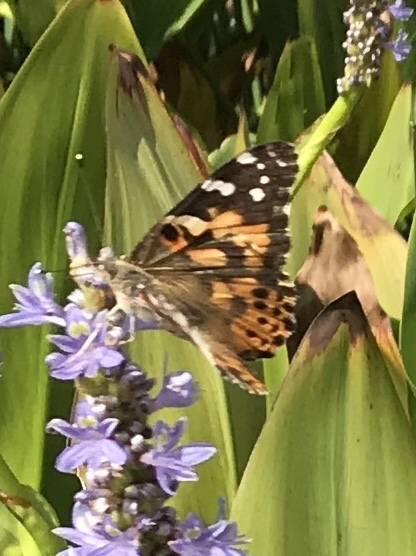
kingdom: Animalia
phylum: Arthropoda
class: Insecta
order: Lepidoptera
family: Nymphalidae
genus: Vanessa
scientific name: Vanessa cardui
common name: Painted lady
